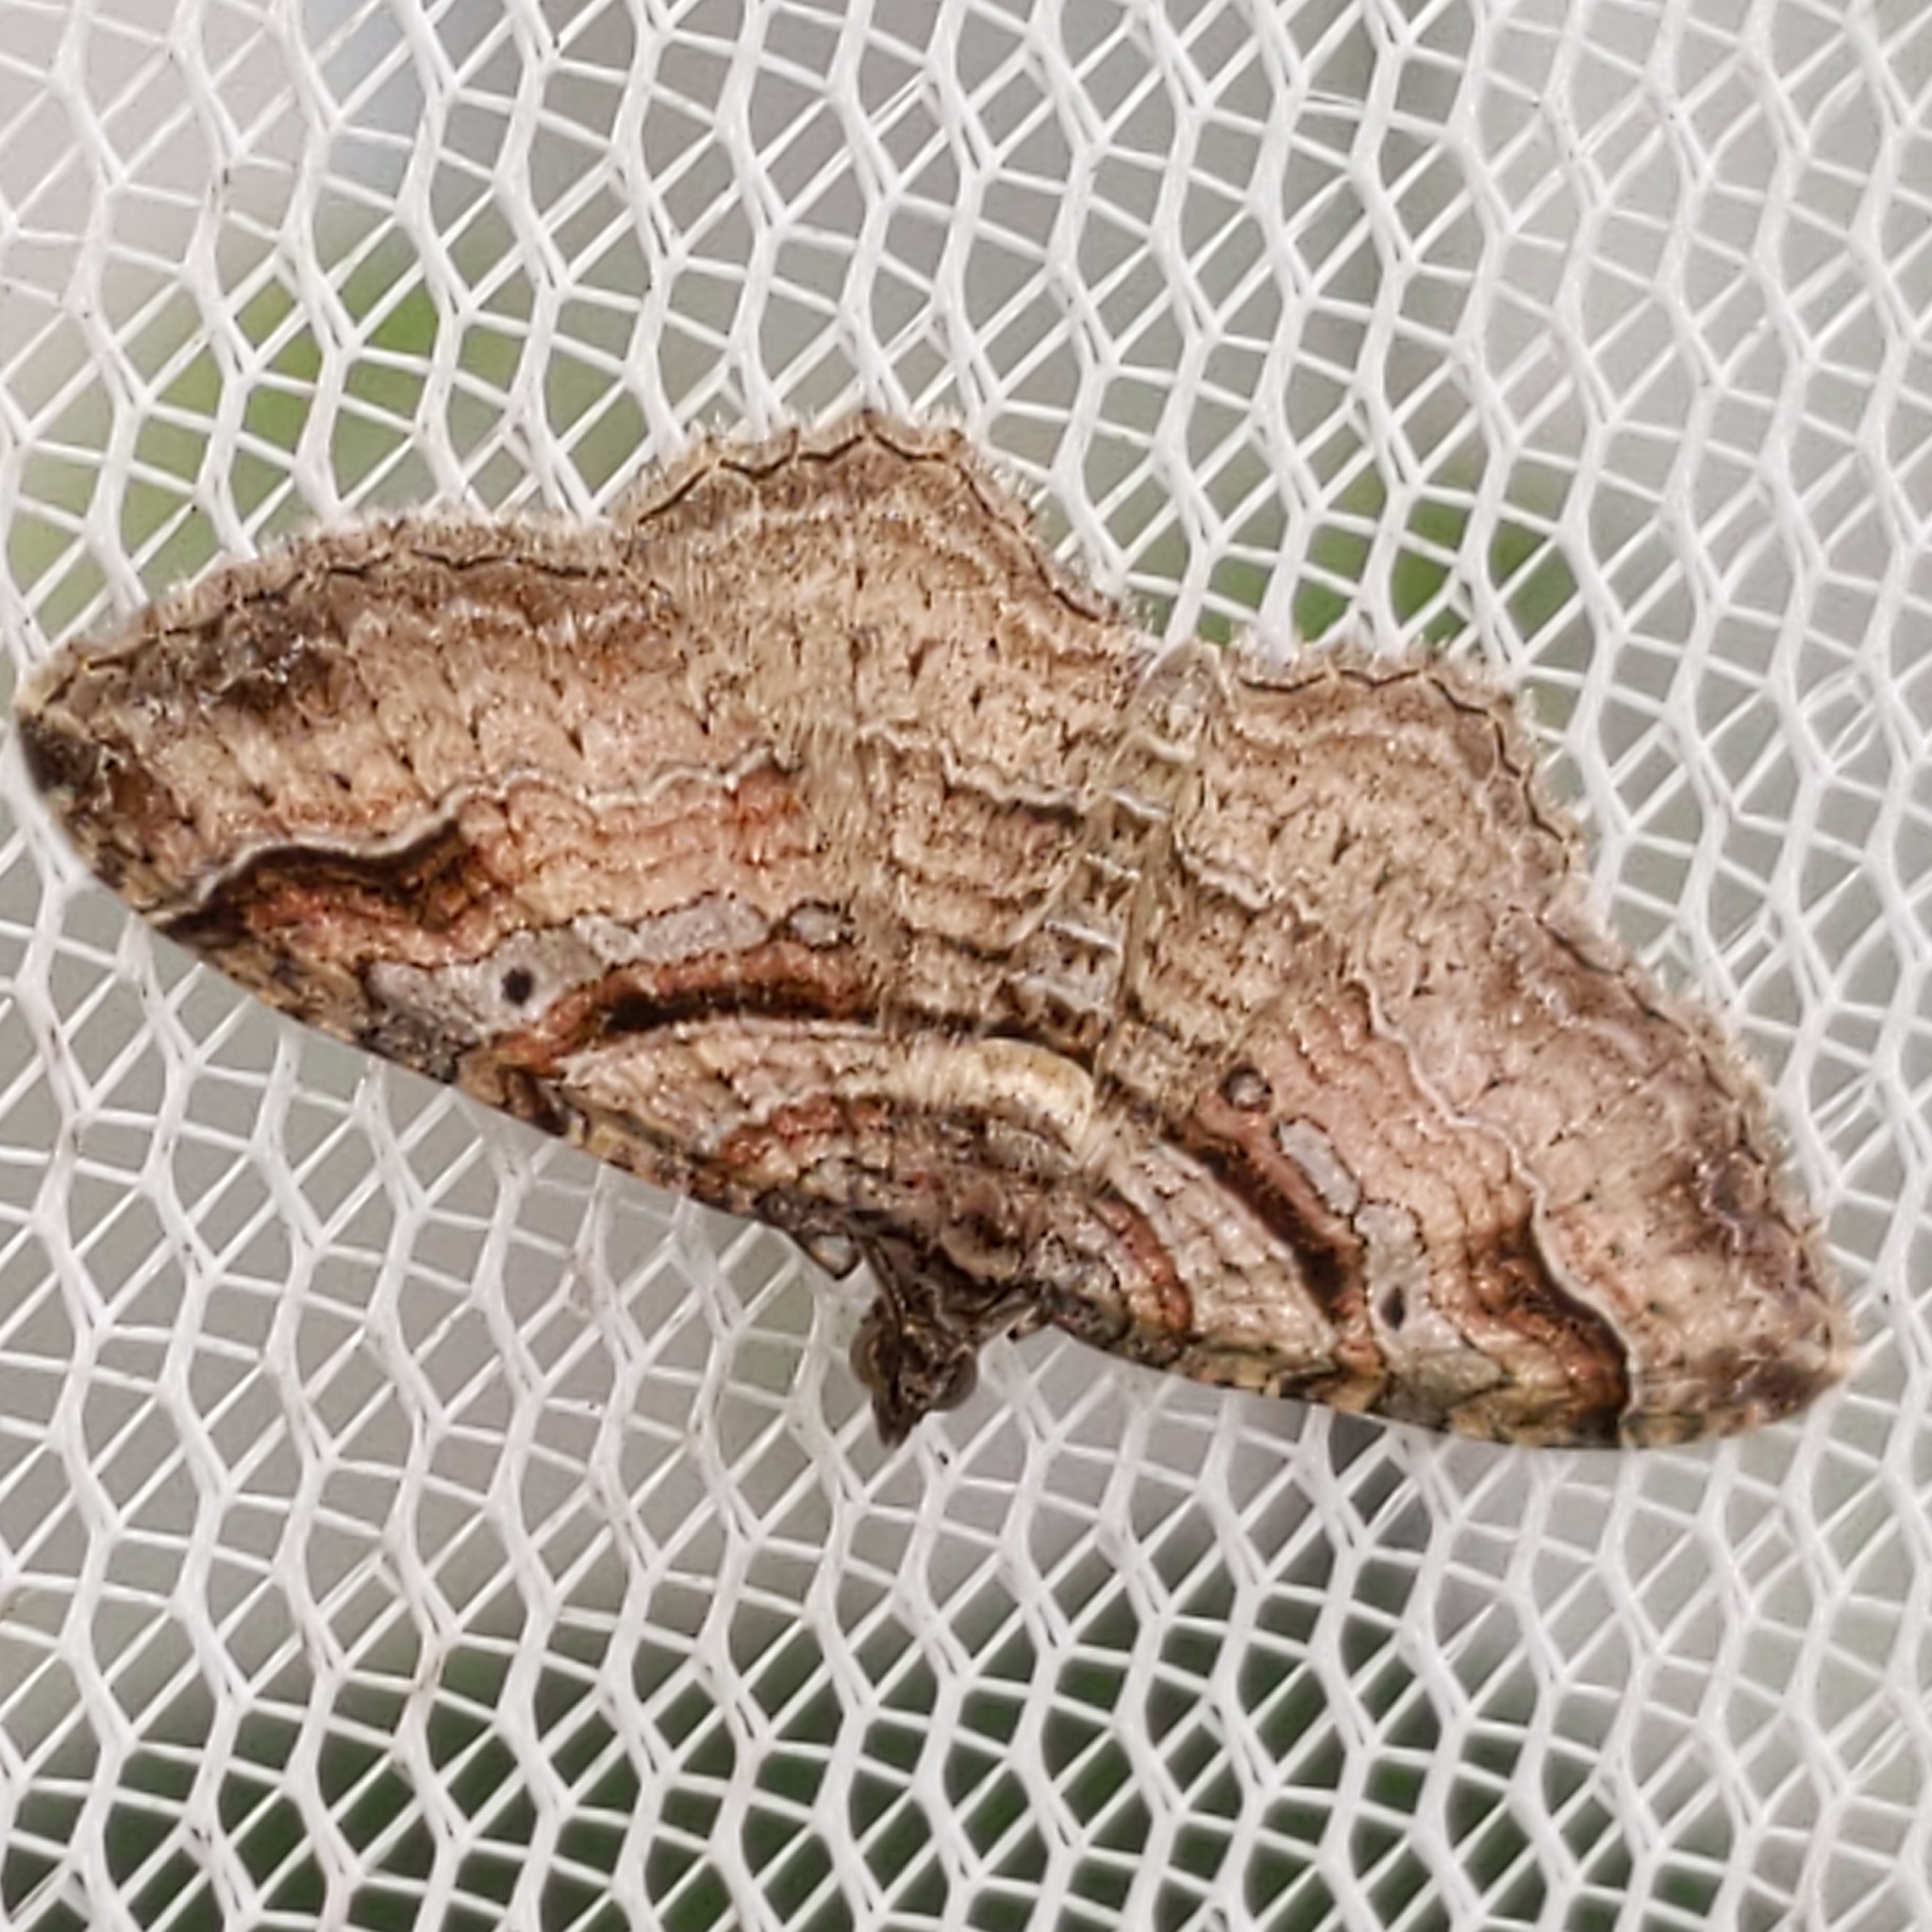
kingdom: Animalia
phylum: Arthropoda
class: Insecta
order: Lepidoptera
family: Geometridae
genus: Costaconvexa
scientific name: Costaconvexa centrostrigaria
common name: Bent-line carpet
